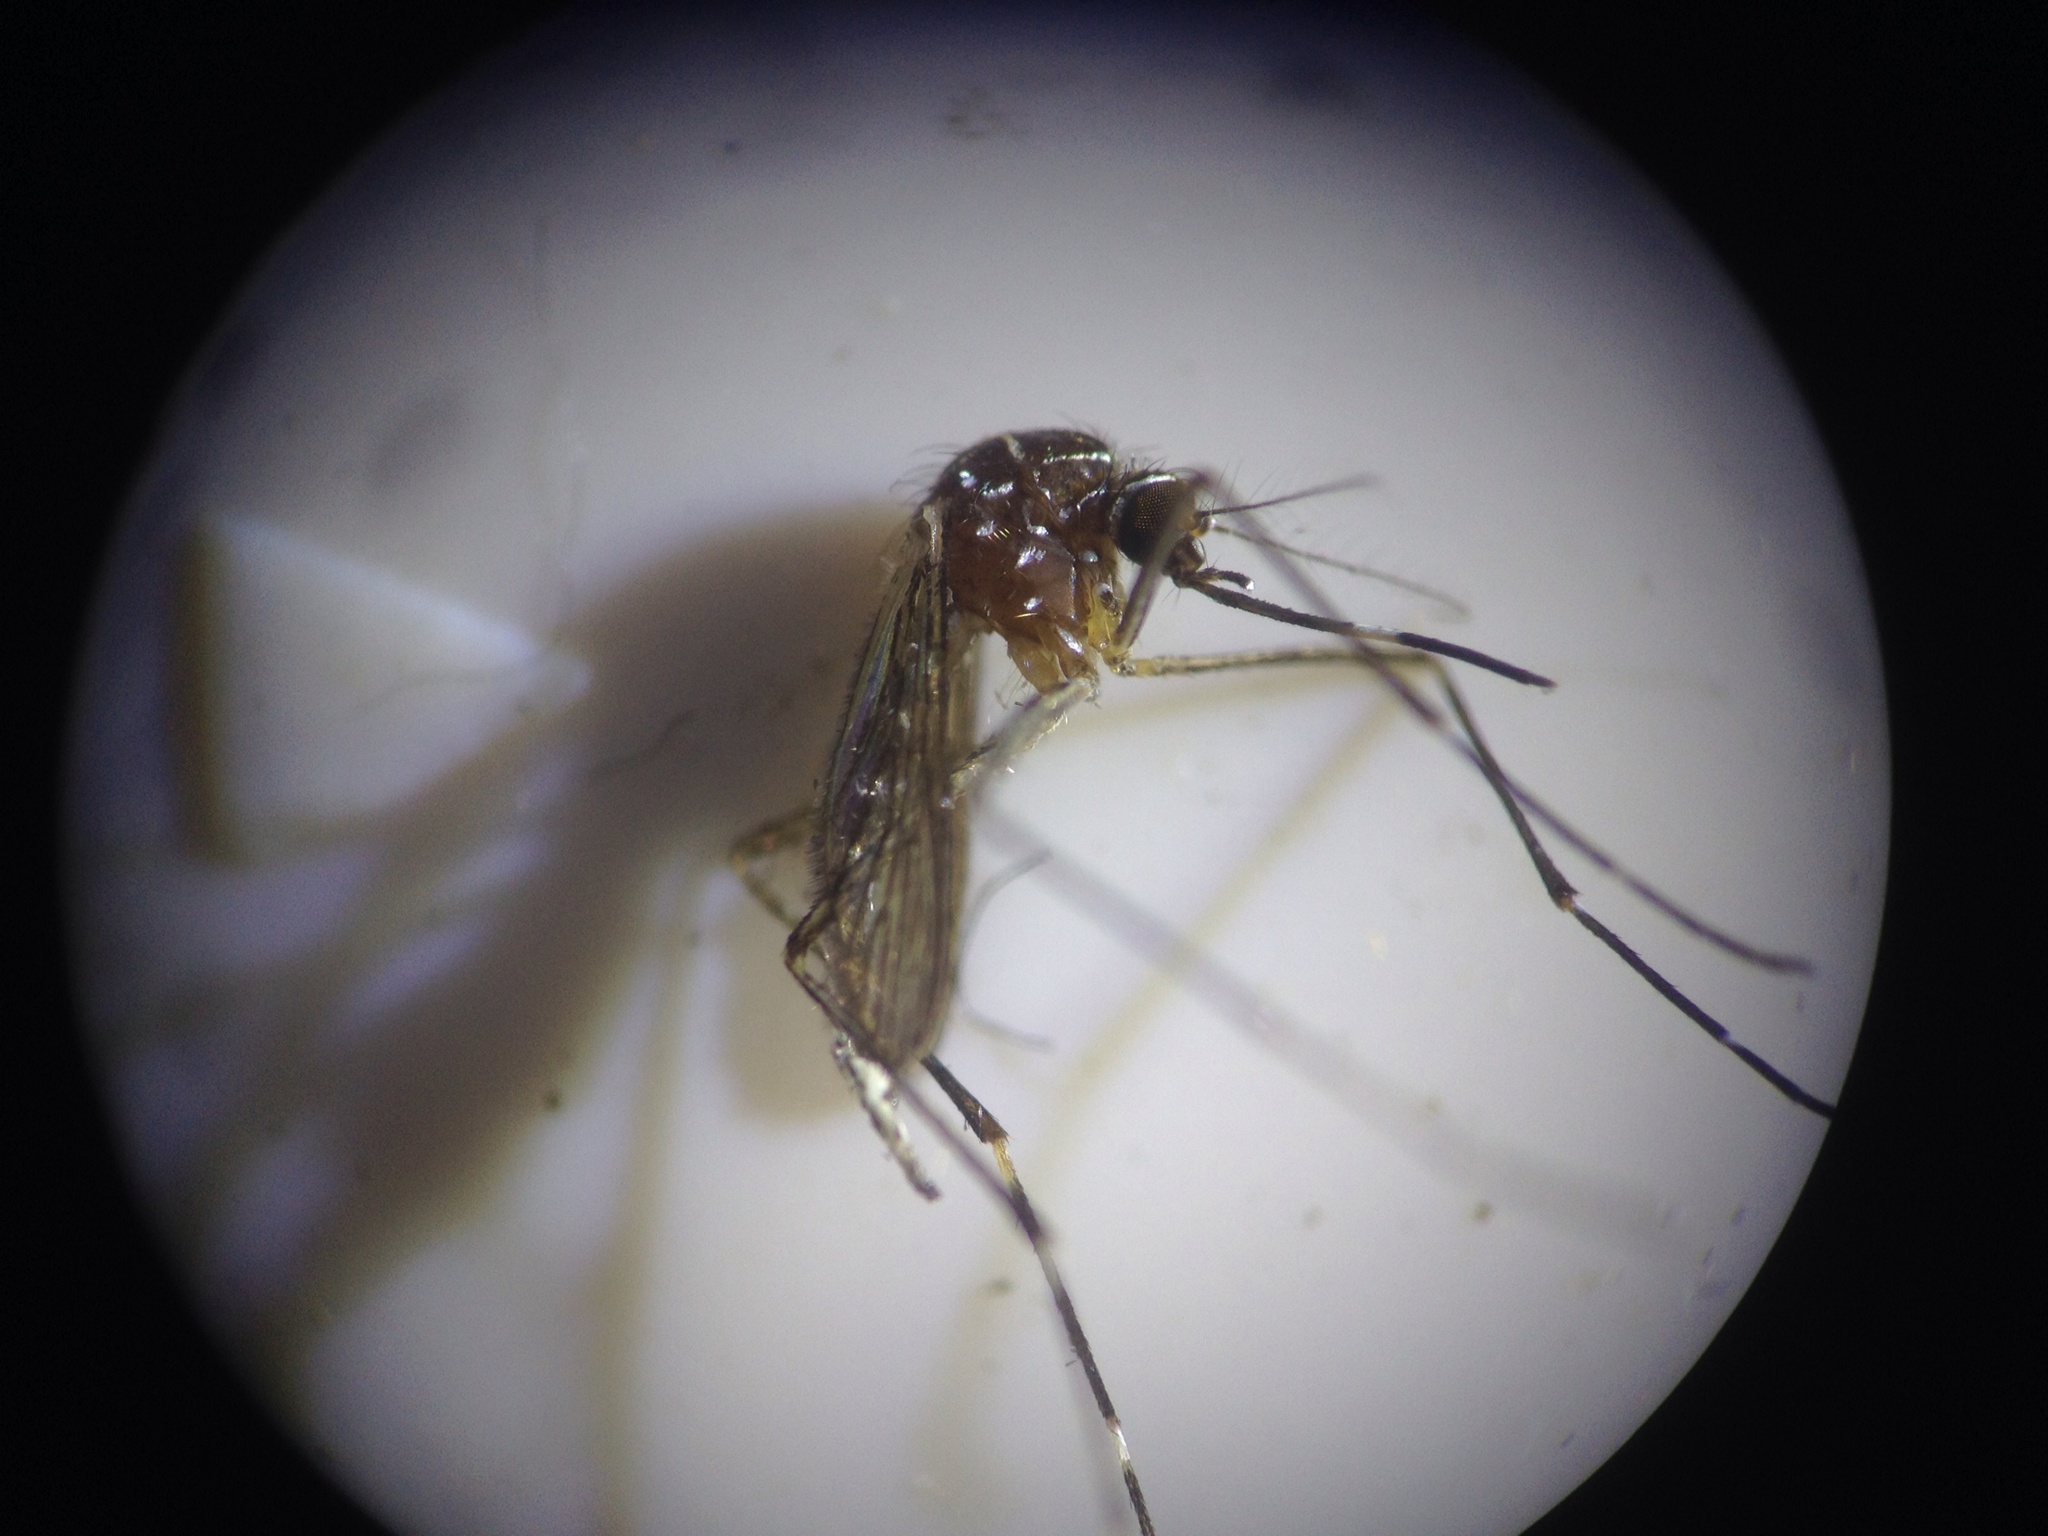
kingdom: Animalia
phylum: Arthropoda
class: Insecta
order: Diptera
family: Culicidae
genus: Aedes
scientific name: Aedes notoscriptus
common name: Australian backyard mosquito
